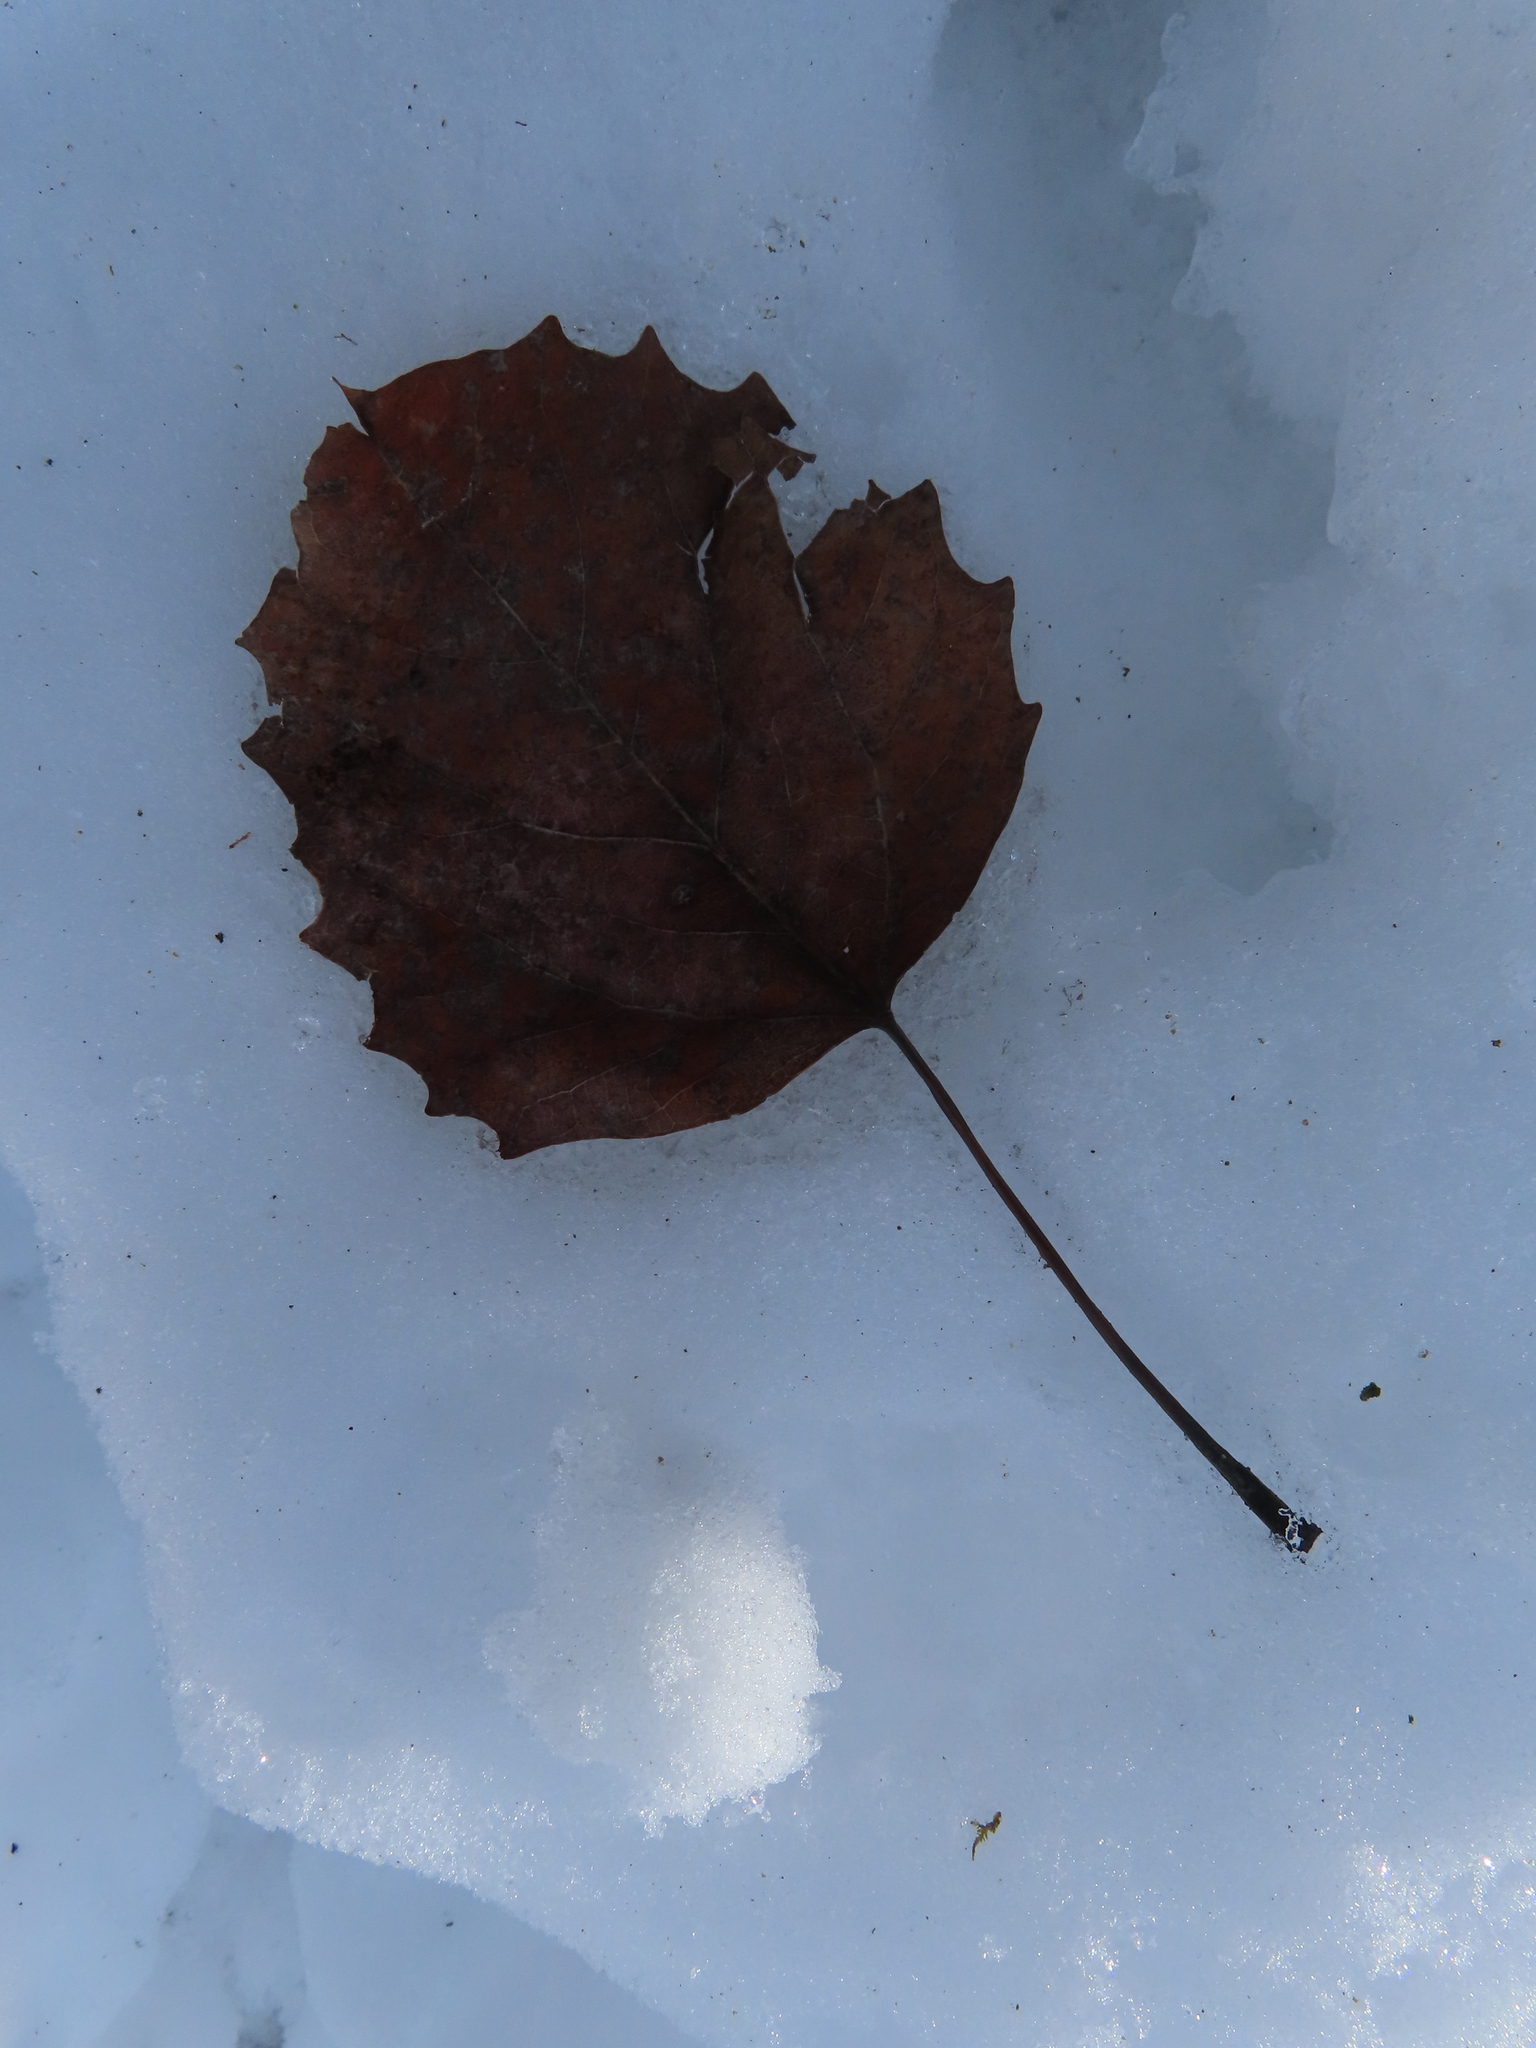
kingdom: Plantae
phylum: Tracheophyta
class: Magnoliopsida
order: Malpighiales
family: Salicaceae
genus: Populus
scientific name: Populus grandidentata
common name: Bigtooth aspen
